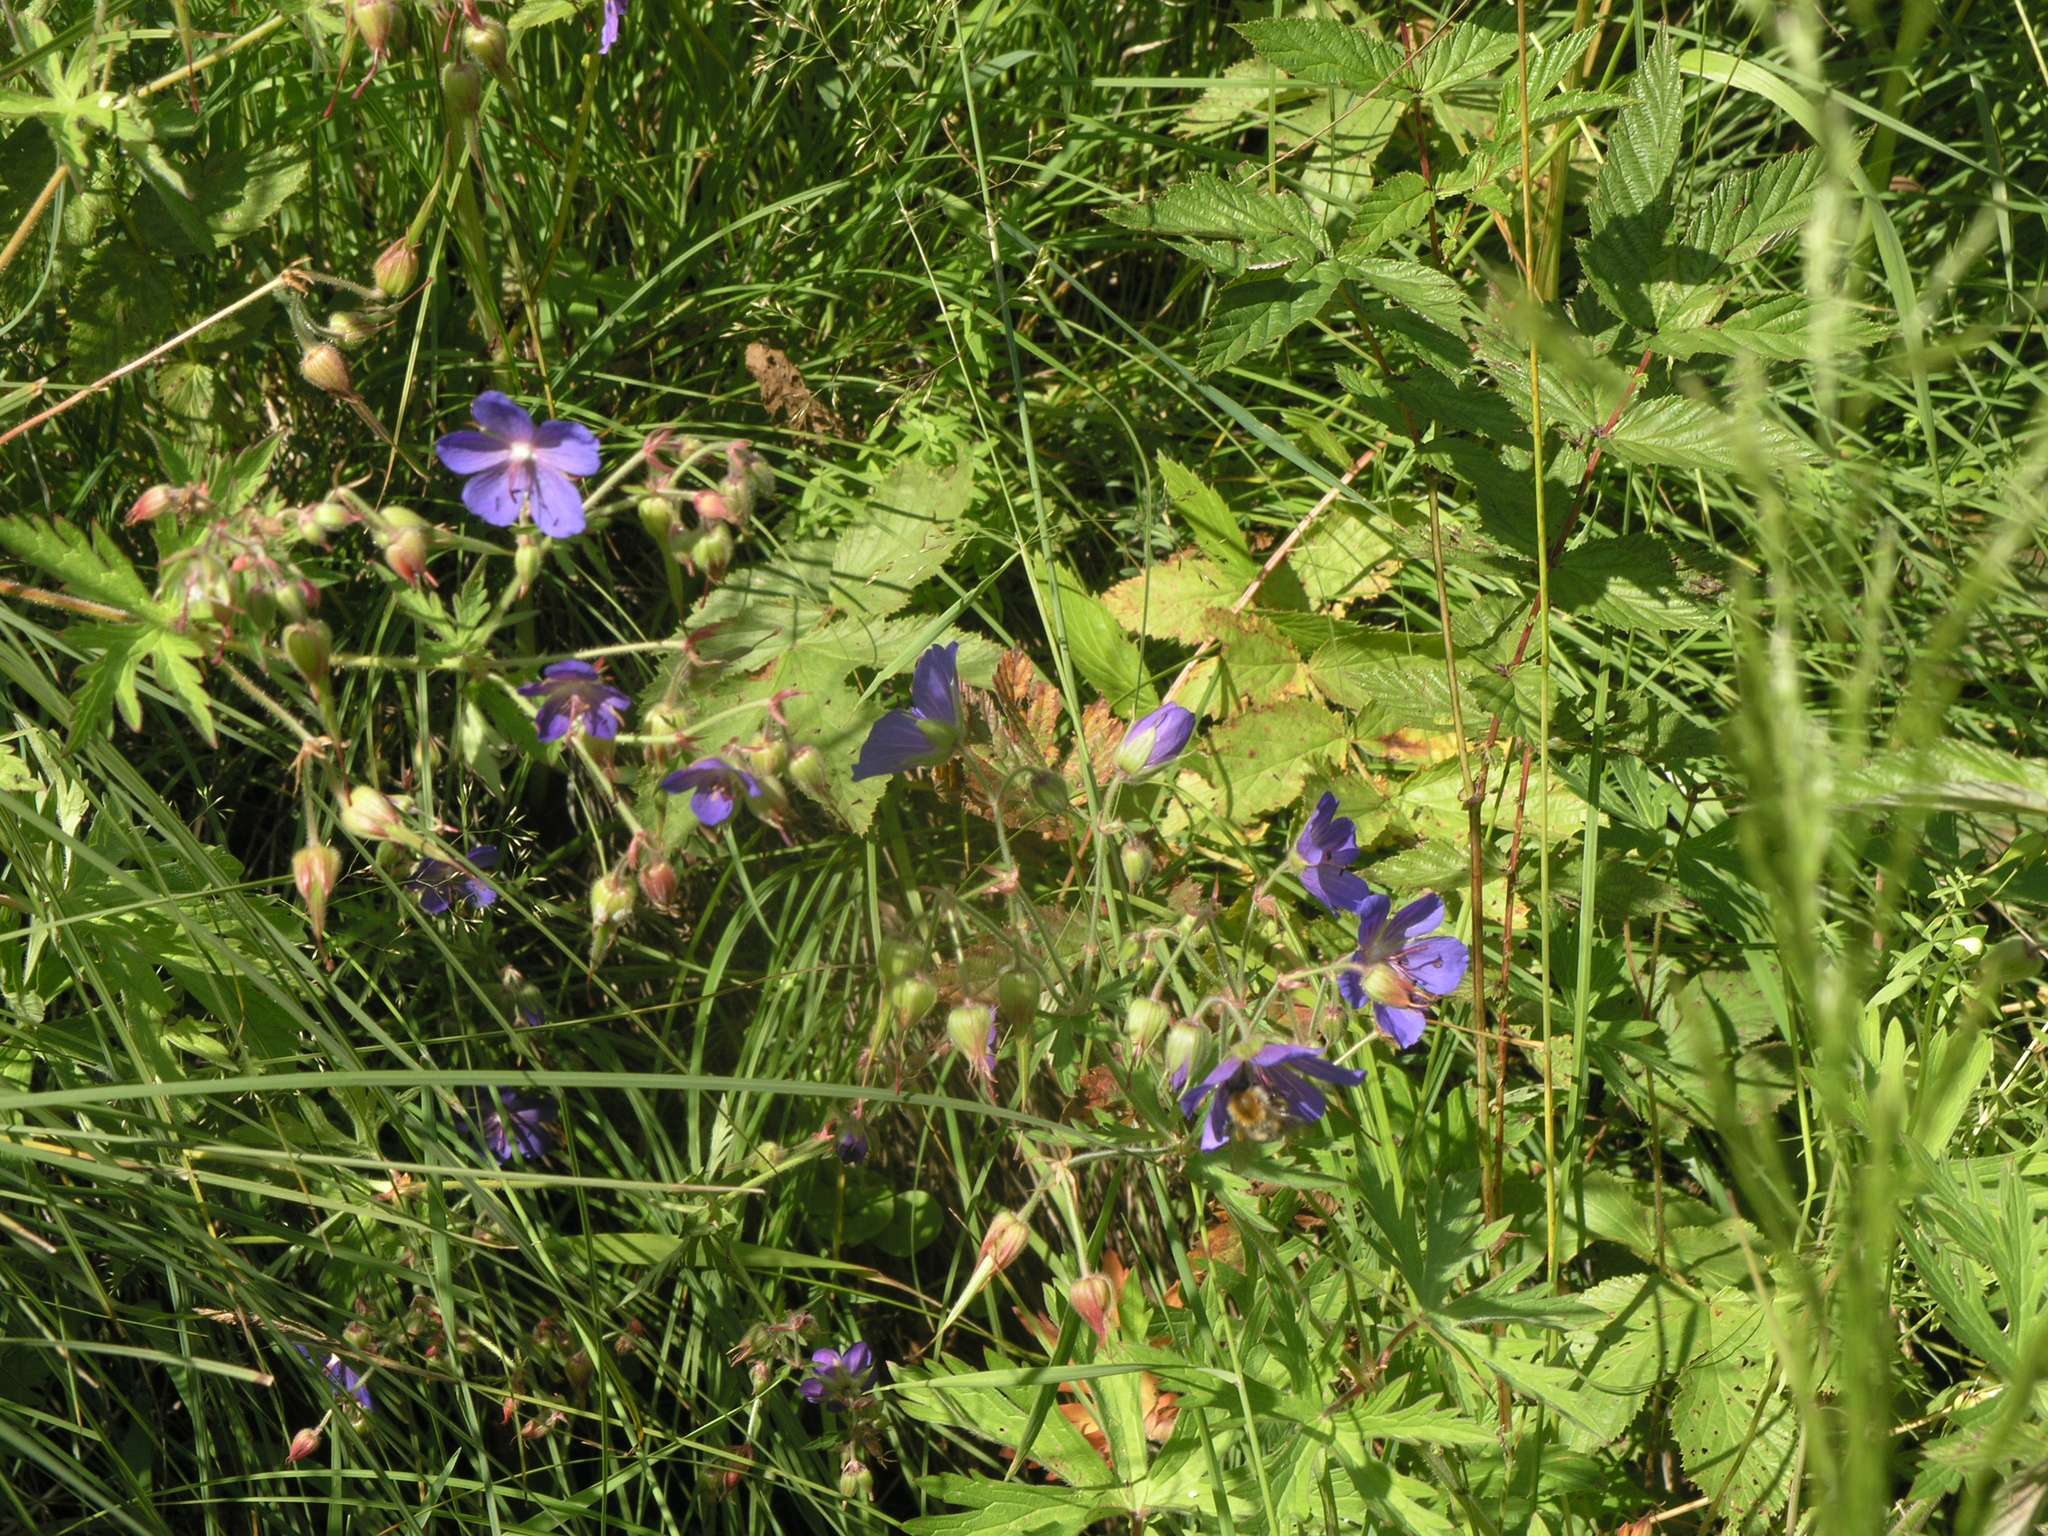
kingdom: Plantae
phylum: Tracheophyta
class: Magnoliopsida
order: Geraniales
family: Geraniaceae
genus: Geranium
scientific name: Geranium pratense
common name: Meadow crane's-bill
